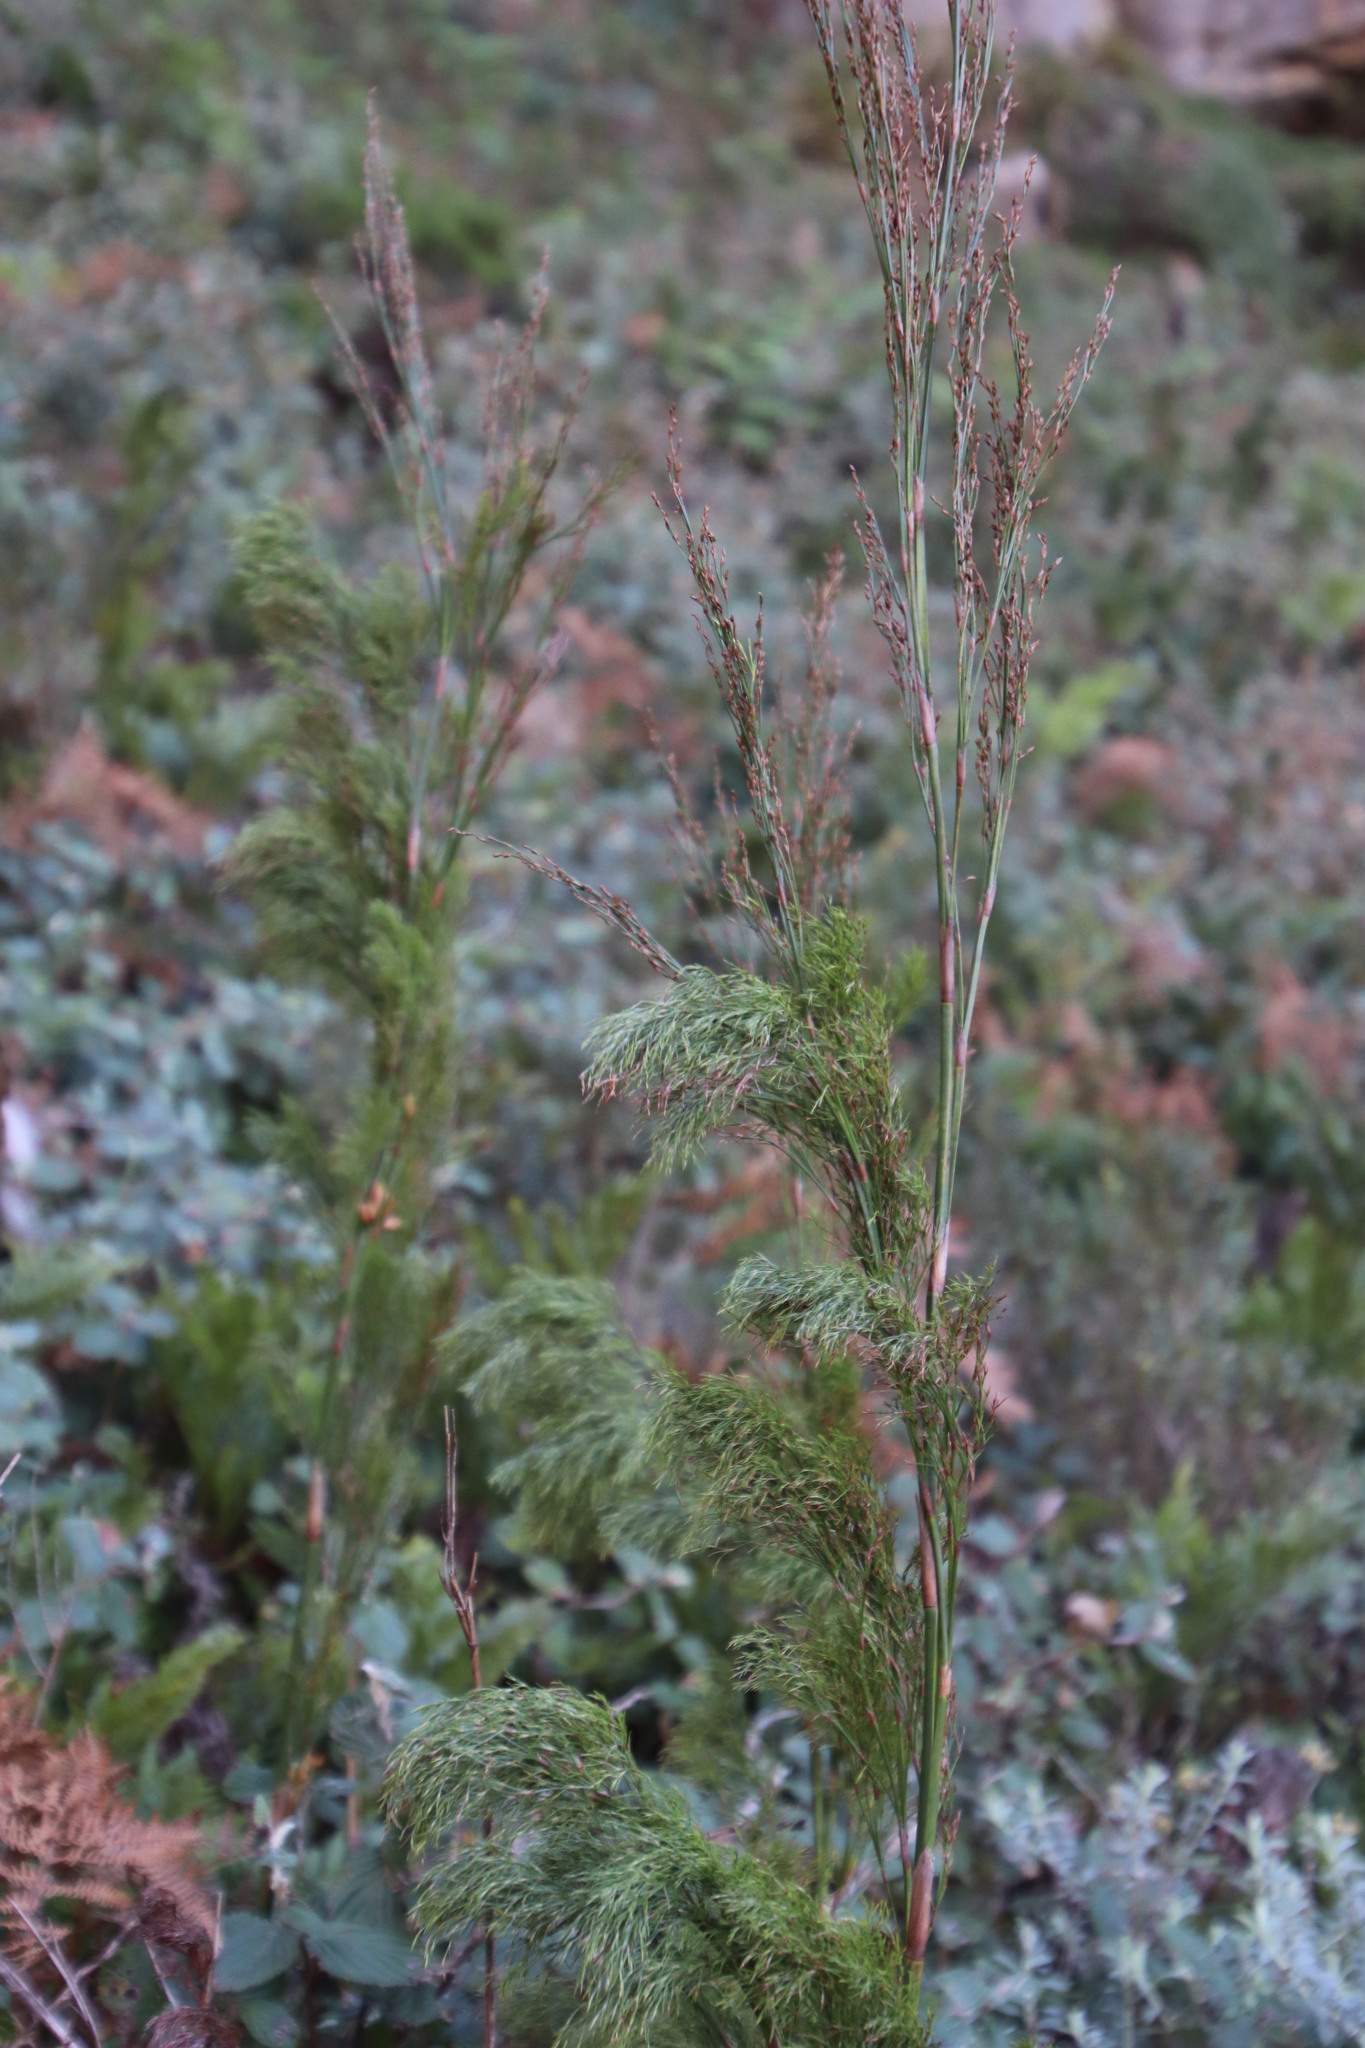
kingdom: Plantae
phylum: Tracheophyta
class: Liliopsida
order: Poales
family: Restionaceae
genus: Restio
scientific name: Restio paniculatus
